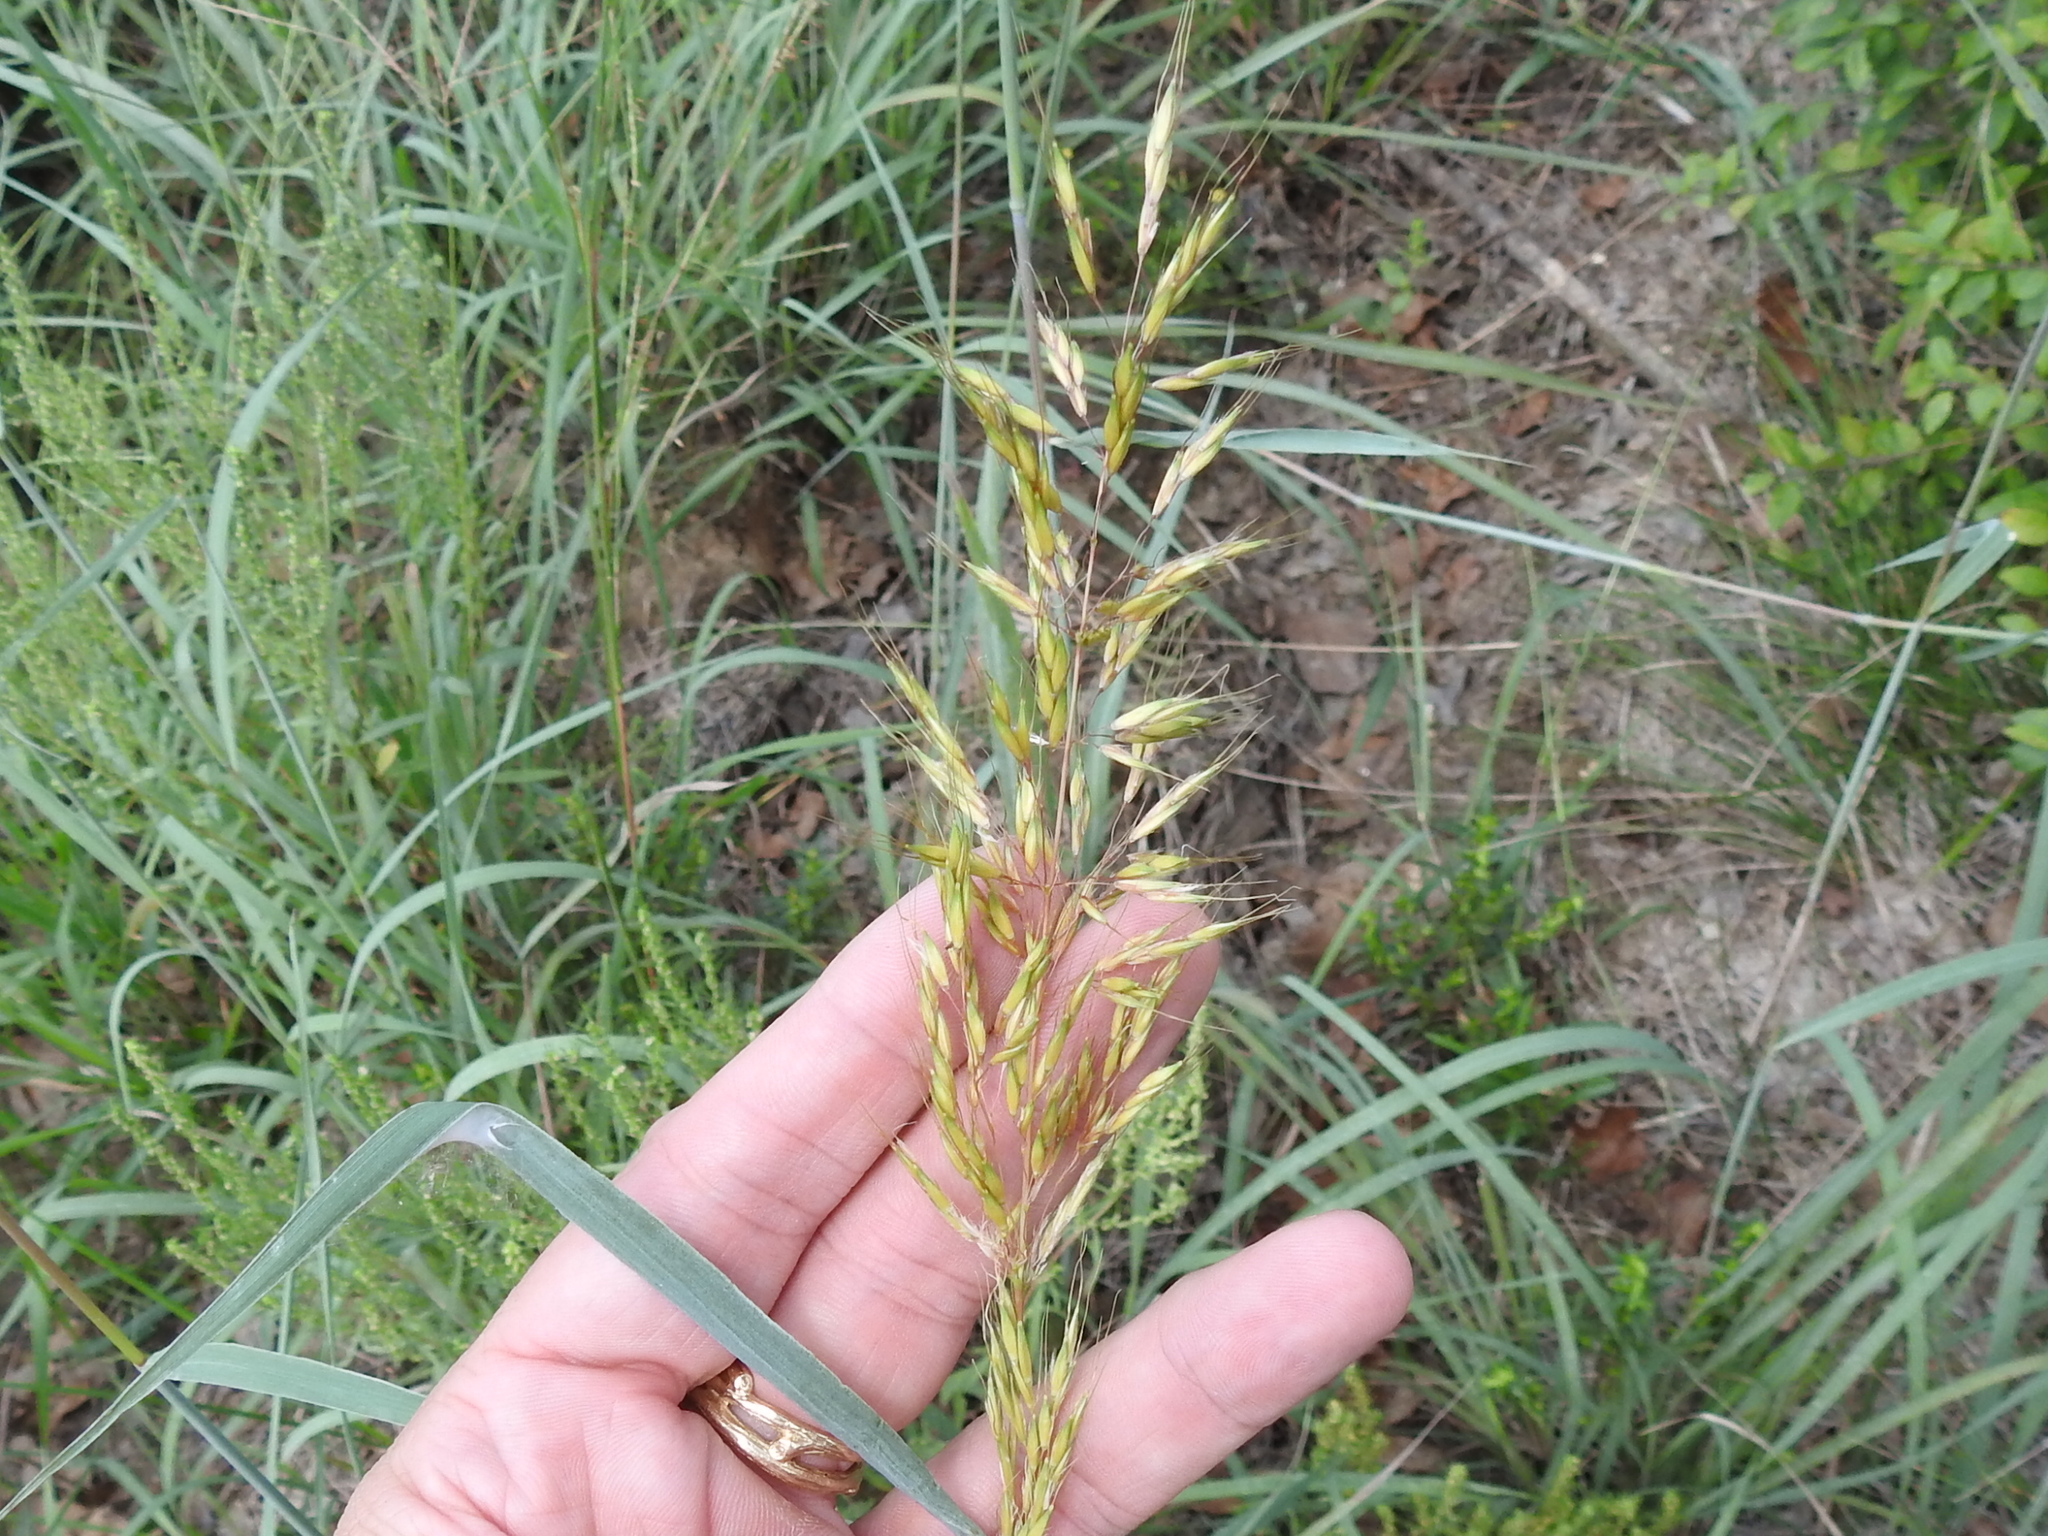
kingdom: Plantae
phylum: Tracheophyta
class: Liliopsida
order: Poales
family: Poaceae
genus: Sorghastrum
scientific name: Sorghastrum nutans
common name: Indian grass
